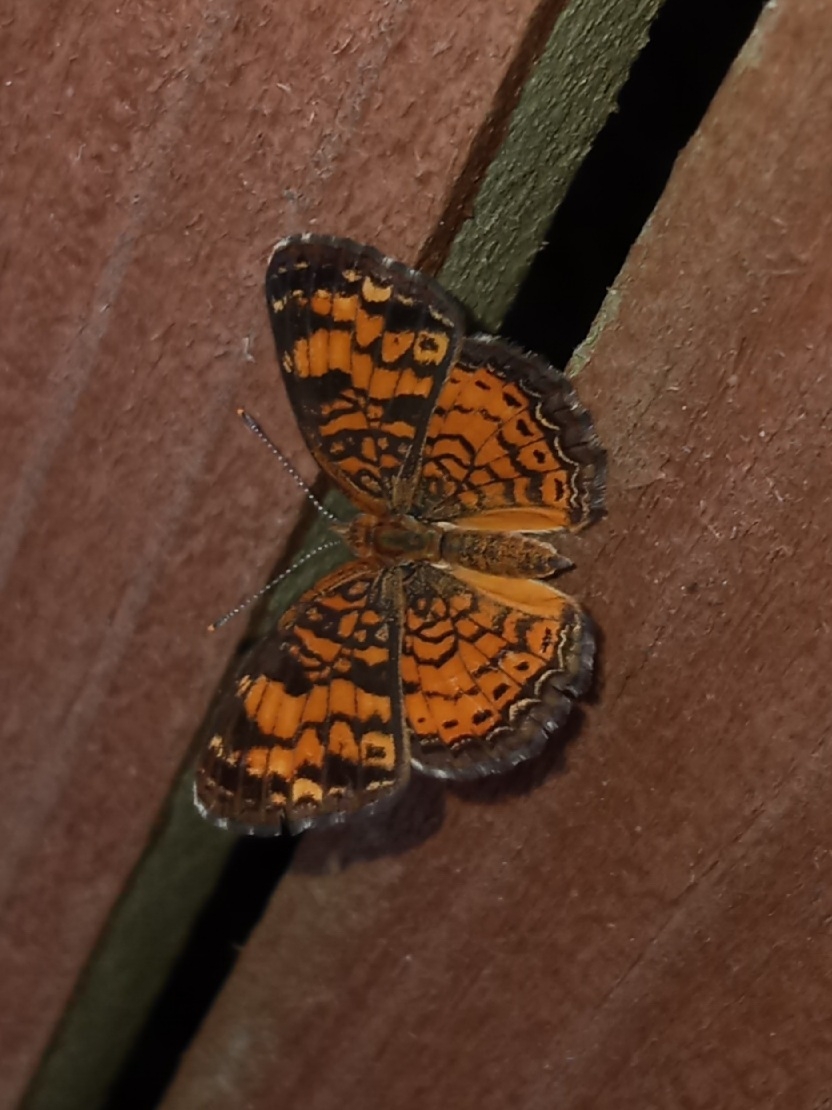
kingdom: Animalia
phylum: Arthropoda
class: Insecta
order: Lepidoptera
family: Nymphalidae
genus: Phyciodes
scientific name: Phyciodes tharos
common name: Pearl crescent
